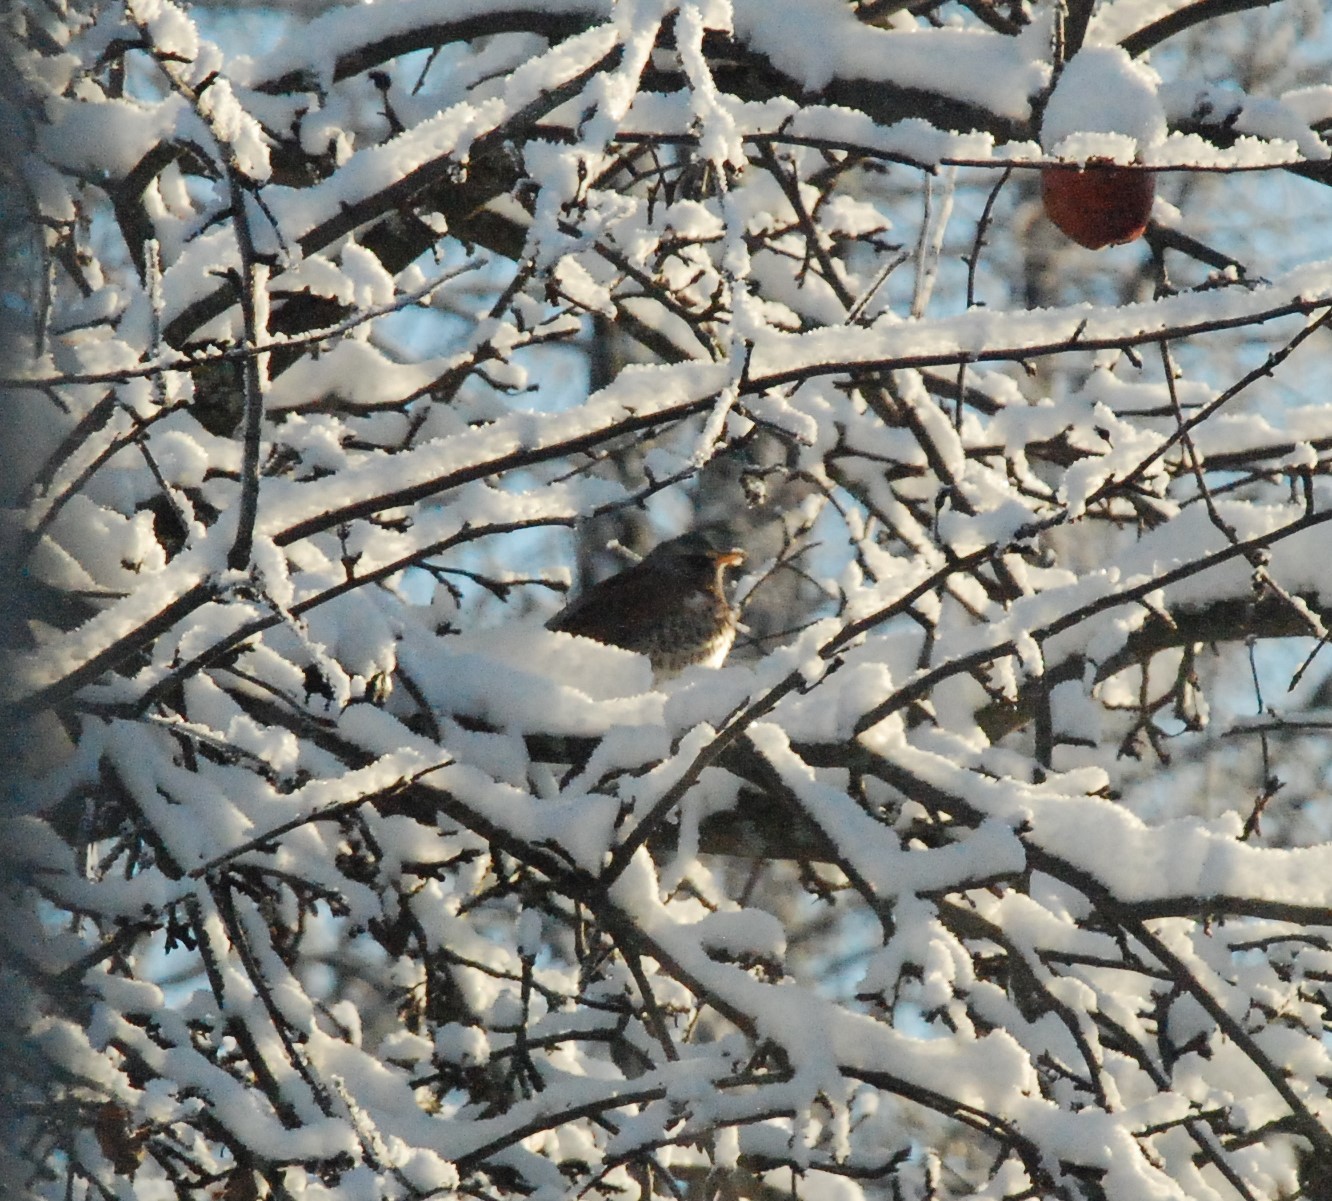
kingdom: Animalia
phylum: Chordata
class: Aves
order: Passeriformes
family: Turdidae
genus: Turdus
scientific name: Turdus pilaris
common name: Fieldfare
